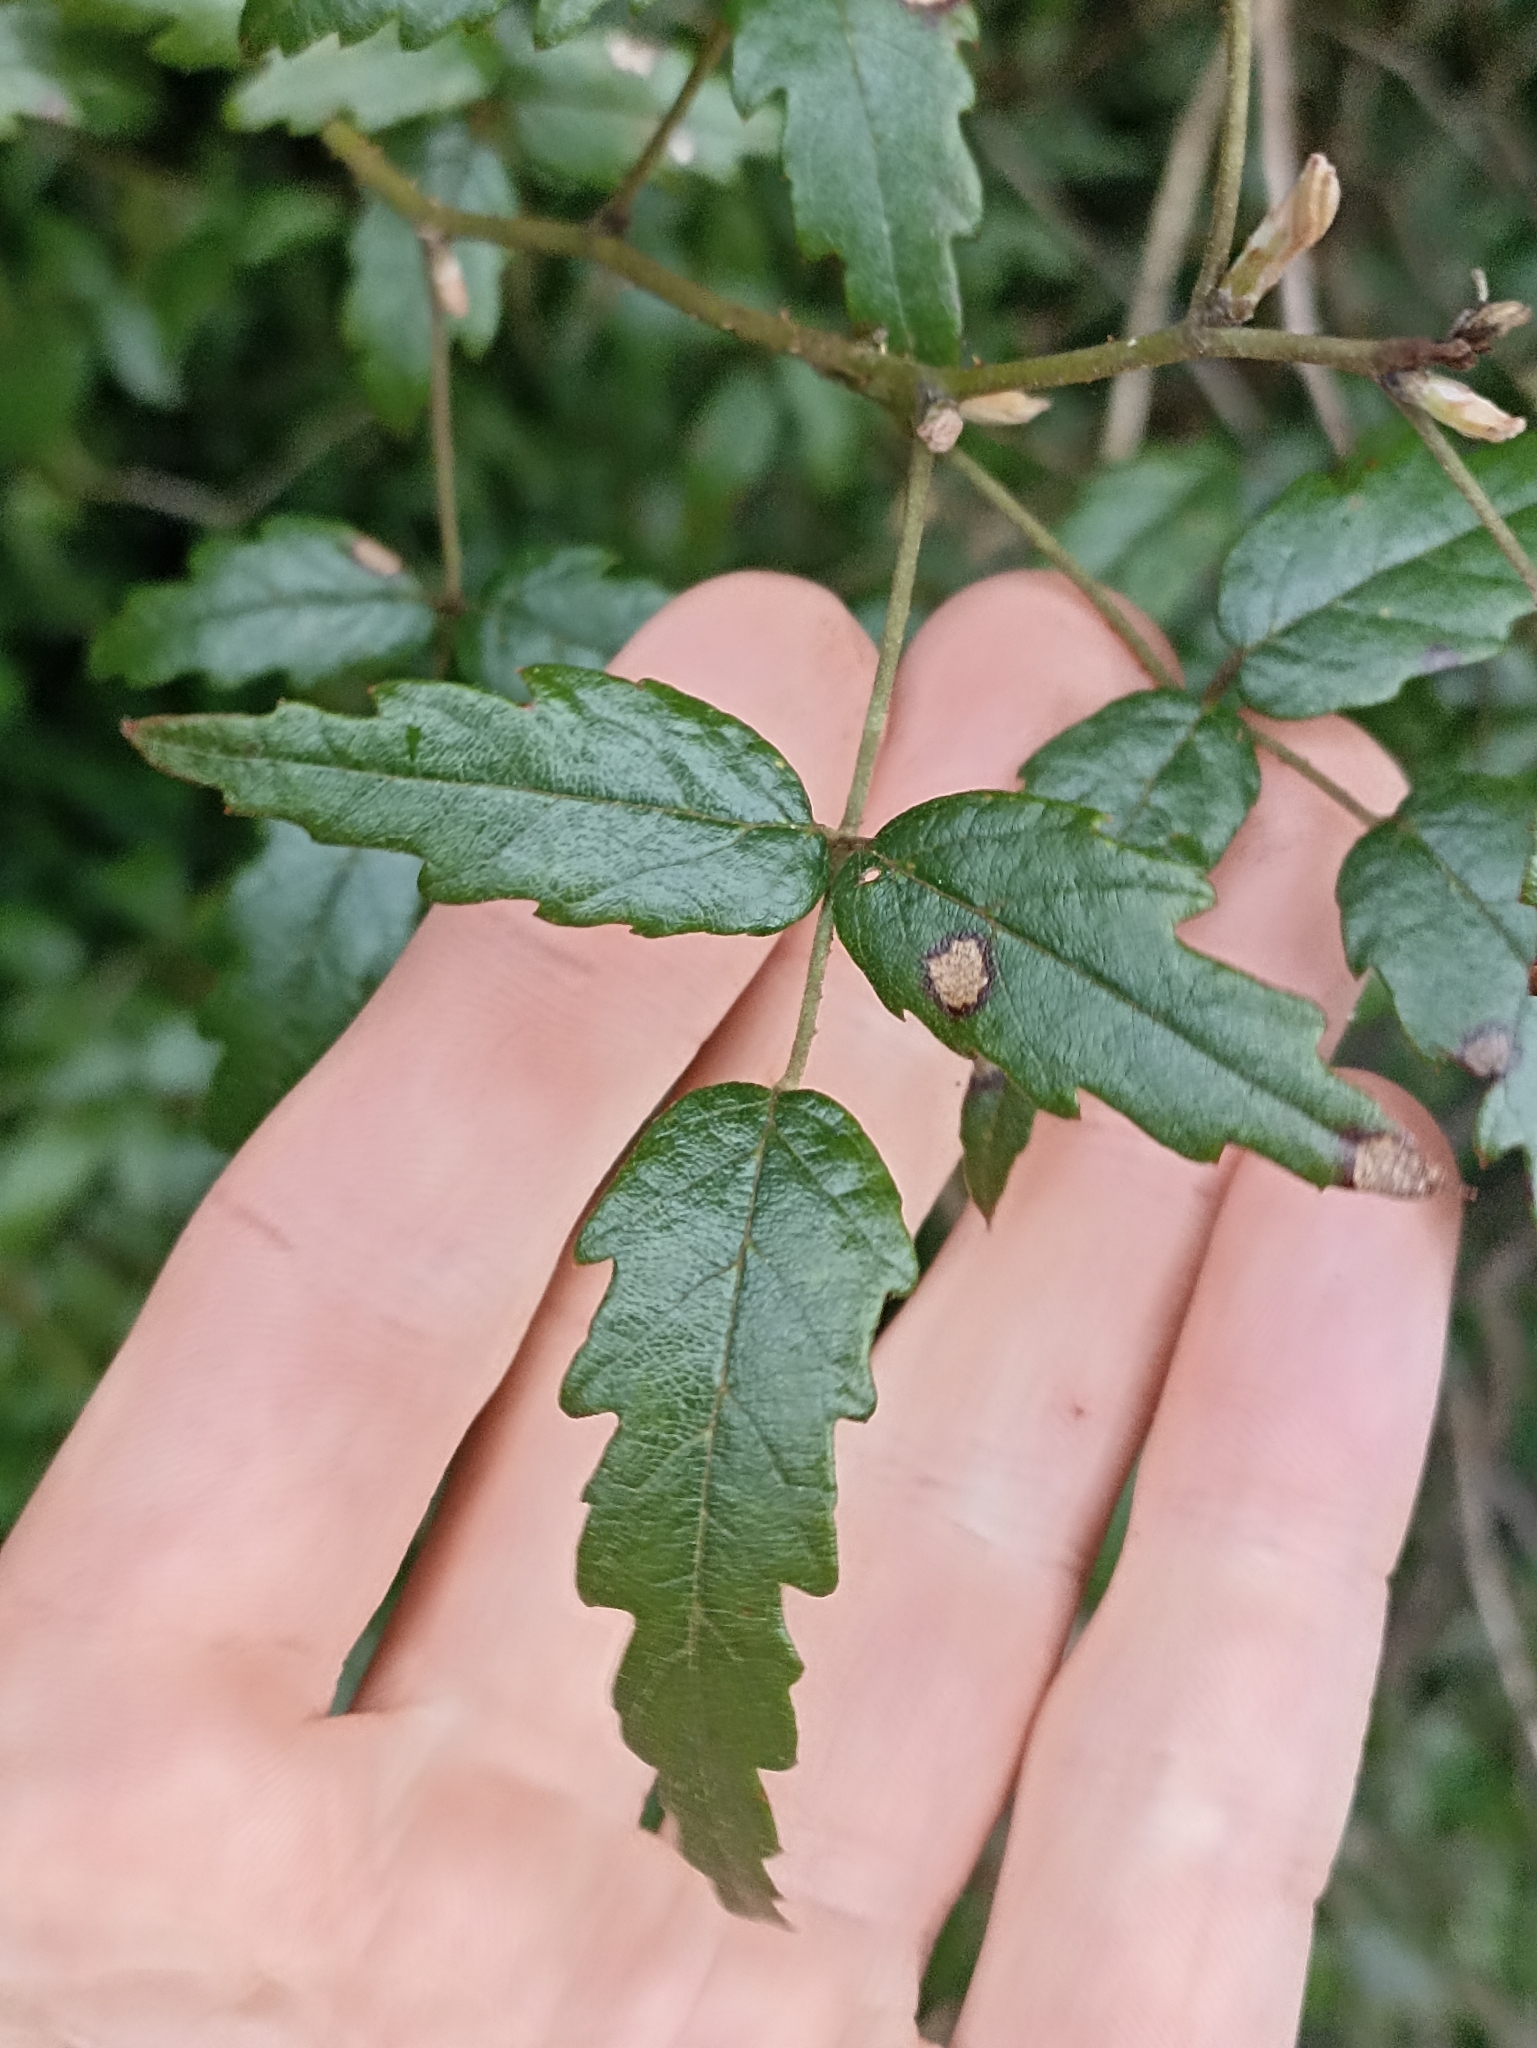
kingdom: Plantae
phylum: Tracheophyta
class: Magnoliopsida
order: Rosales
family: Rosaceae
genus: Rubus
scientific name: Rubus schmidelioides
